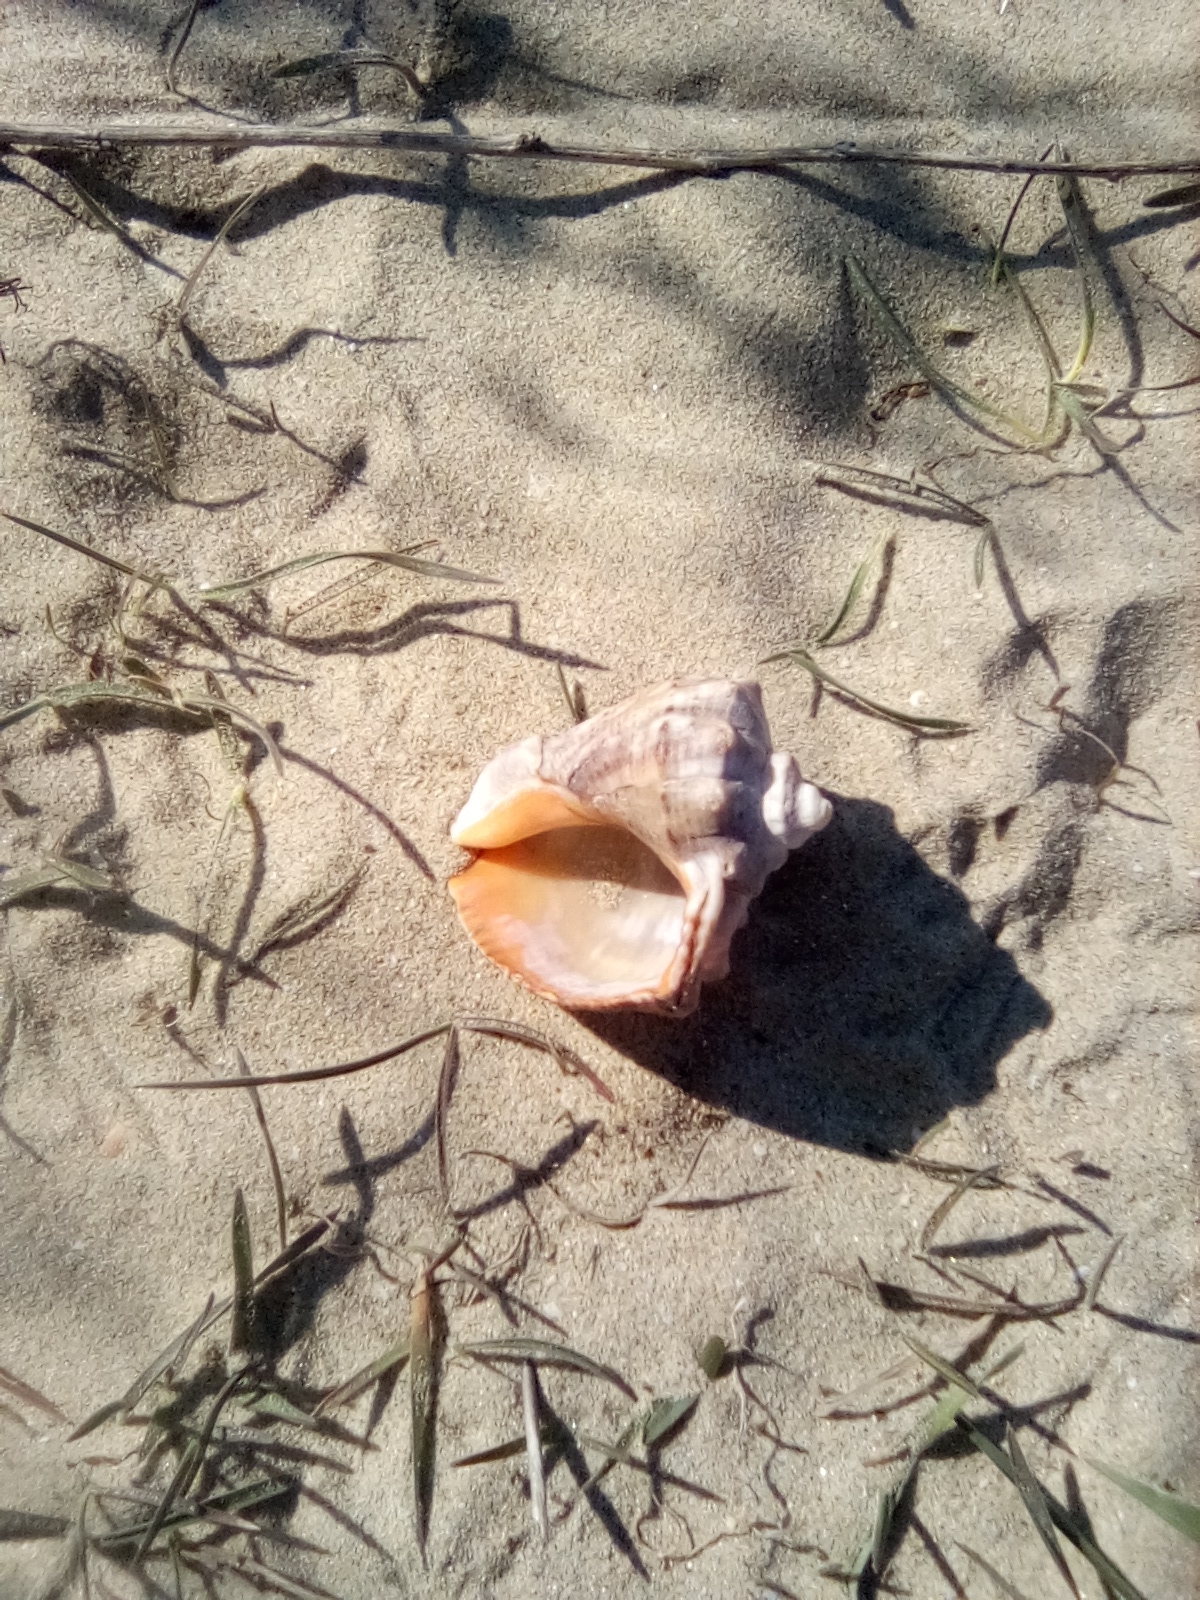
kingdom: Animalia
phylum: Mollusca
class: Gastropoda
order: Neogastropoda
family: Muricidae
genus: Rapana
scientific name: Rapana venosa
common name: Veined rapa whelk
